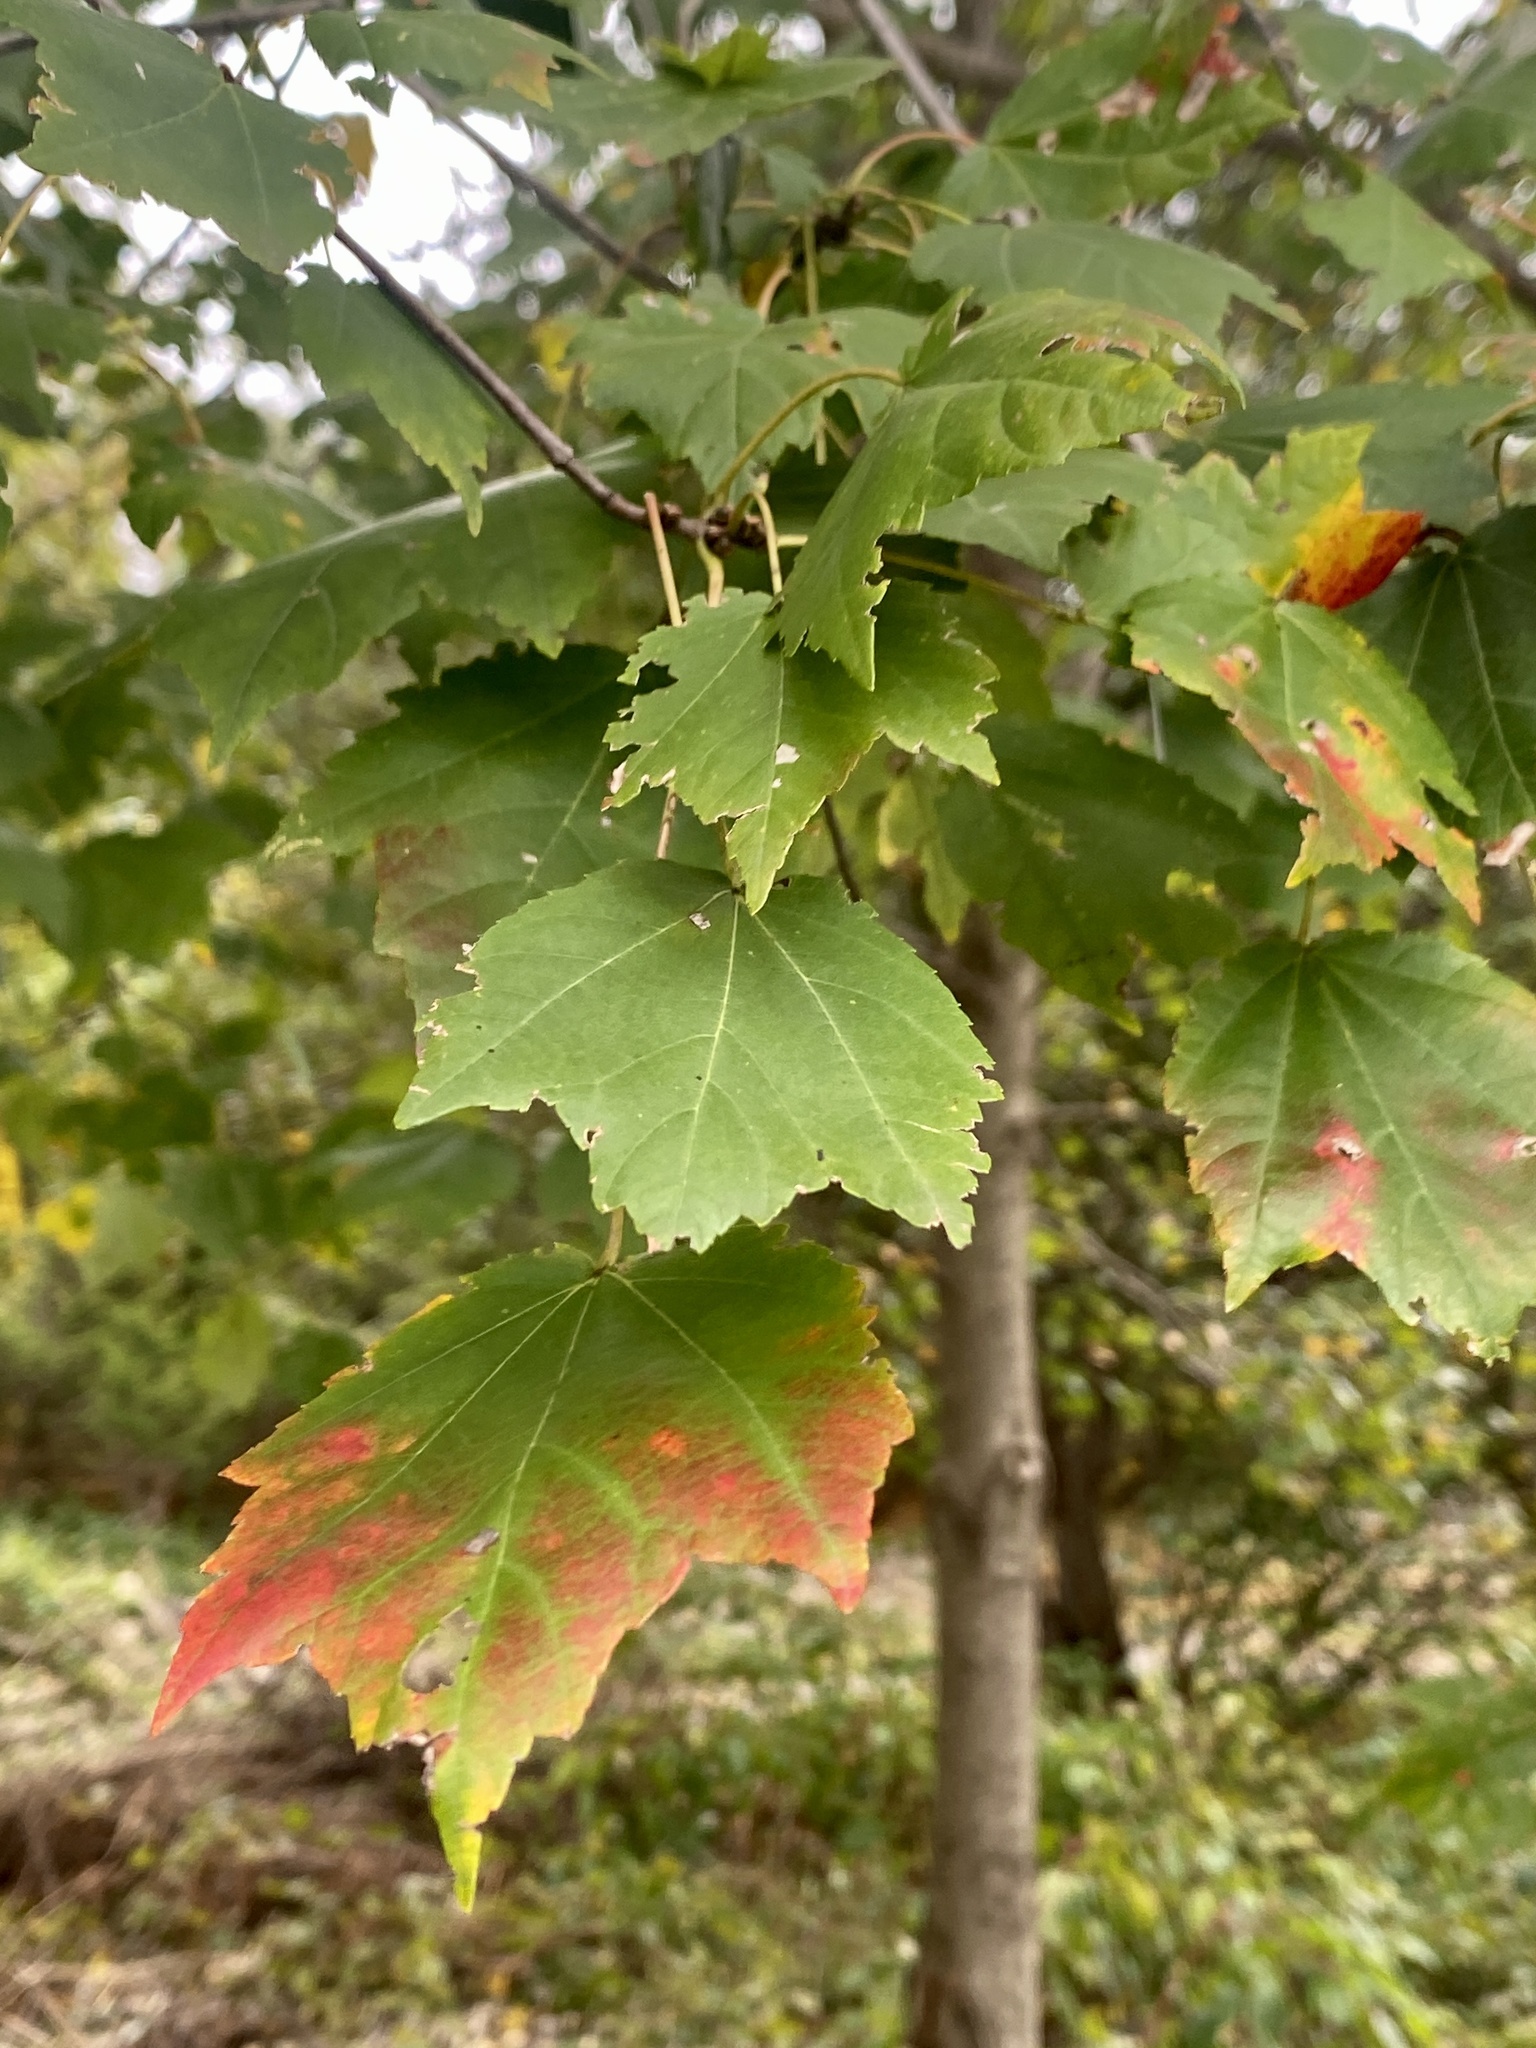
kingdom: Plantae
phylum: Tracheophyta
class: Magnoliopsida
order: Sapindales
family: Sapindaceae
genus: Acer
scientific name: Acer rubrum
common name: Red maple
